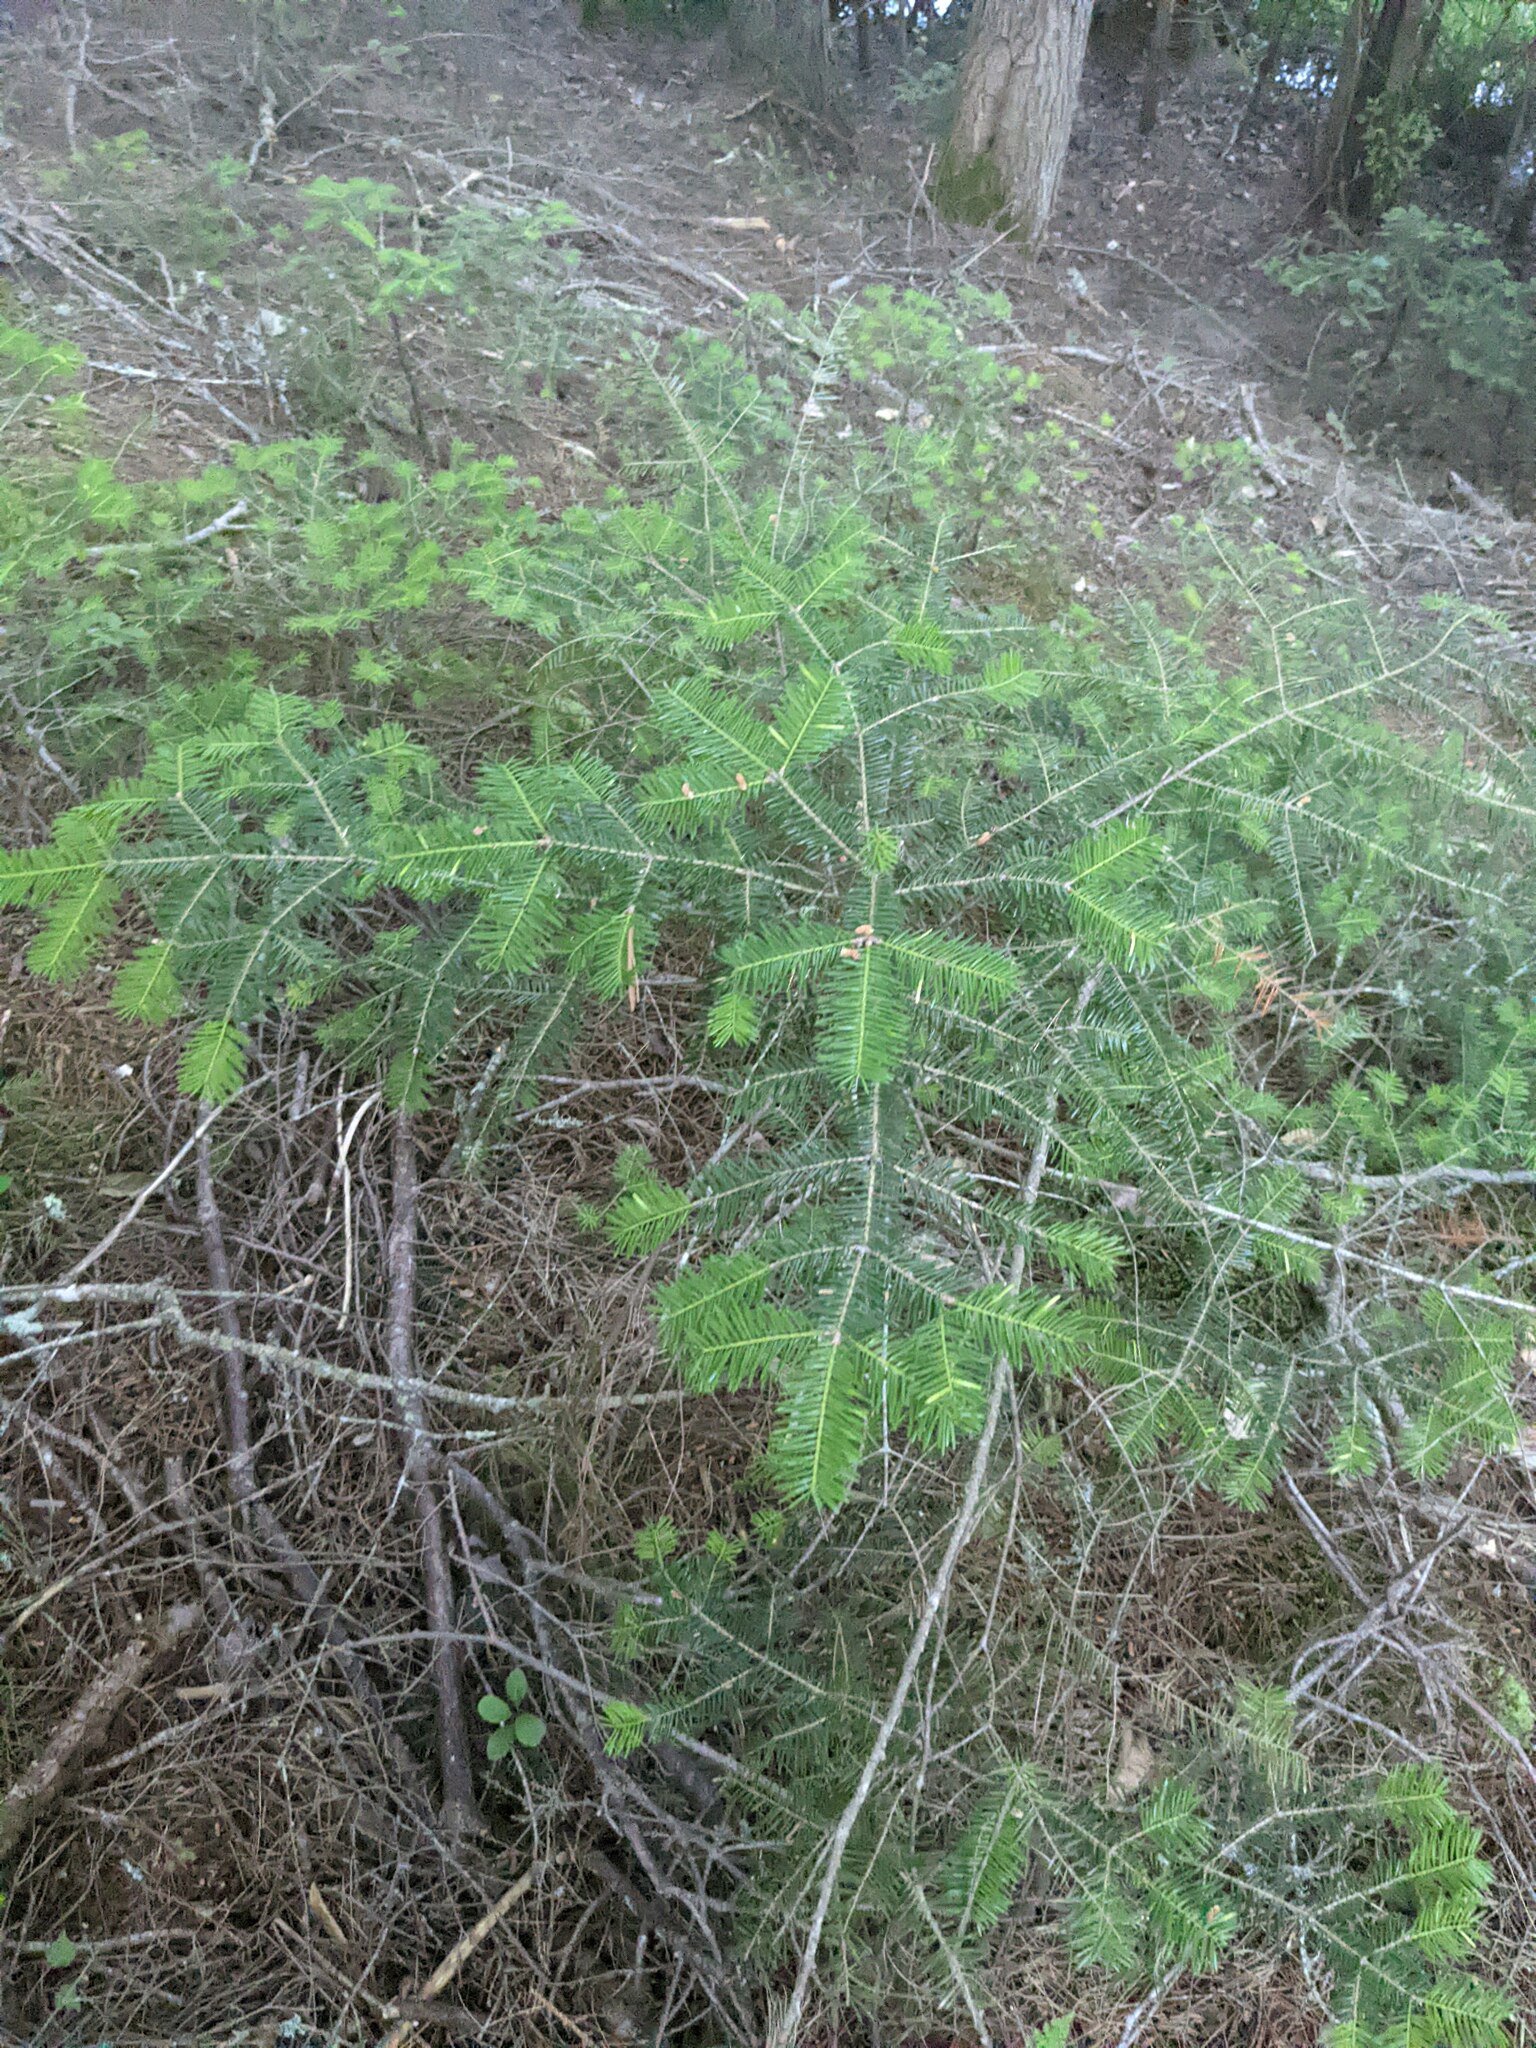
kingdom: Plantae
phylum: Tracheophyta
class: Pinopsida
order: Pinales
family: Pinaceae
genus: Abies
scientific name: Abies balsamea
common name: Balsam fir
